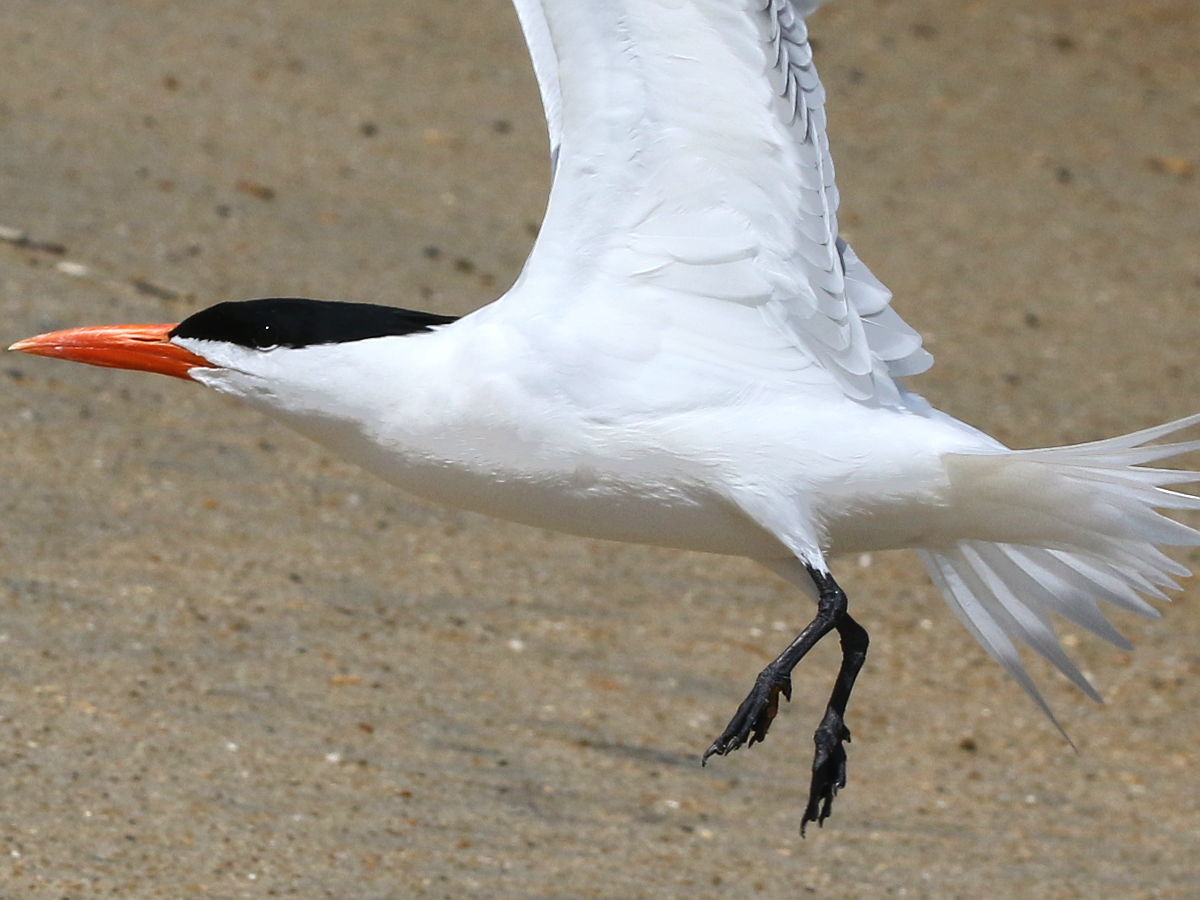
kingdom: Animalia
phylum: Chordata
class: Aves
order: Charadriiformes
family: Laridae
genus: Thalasseus
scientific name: Thalasseus maximus
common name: Royal tern
